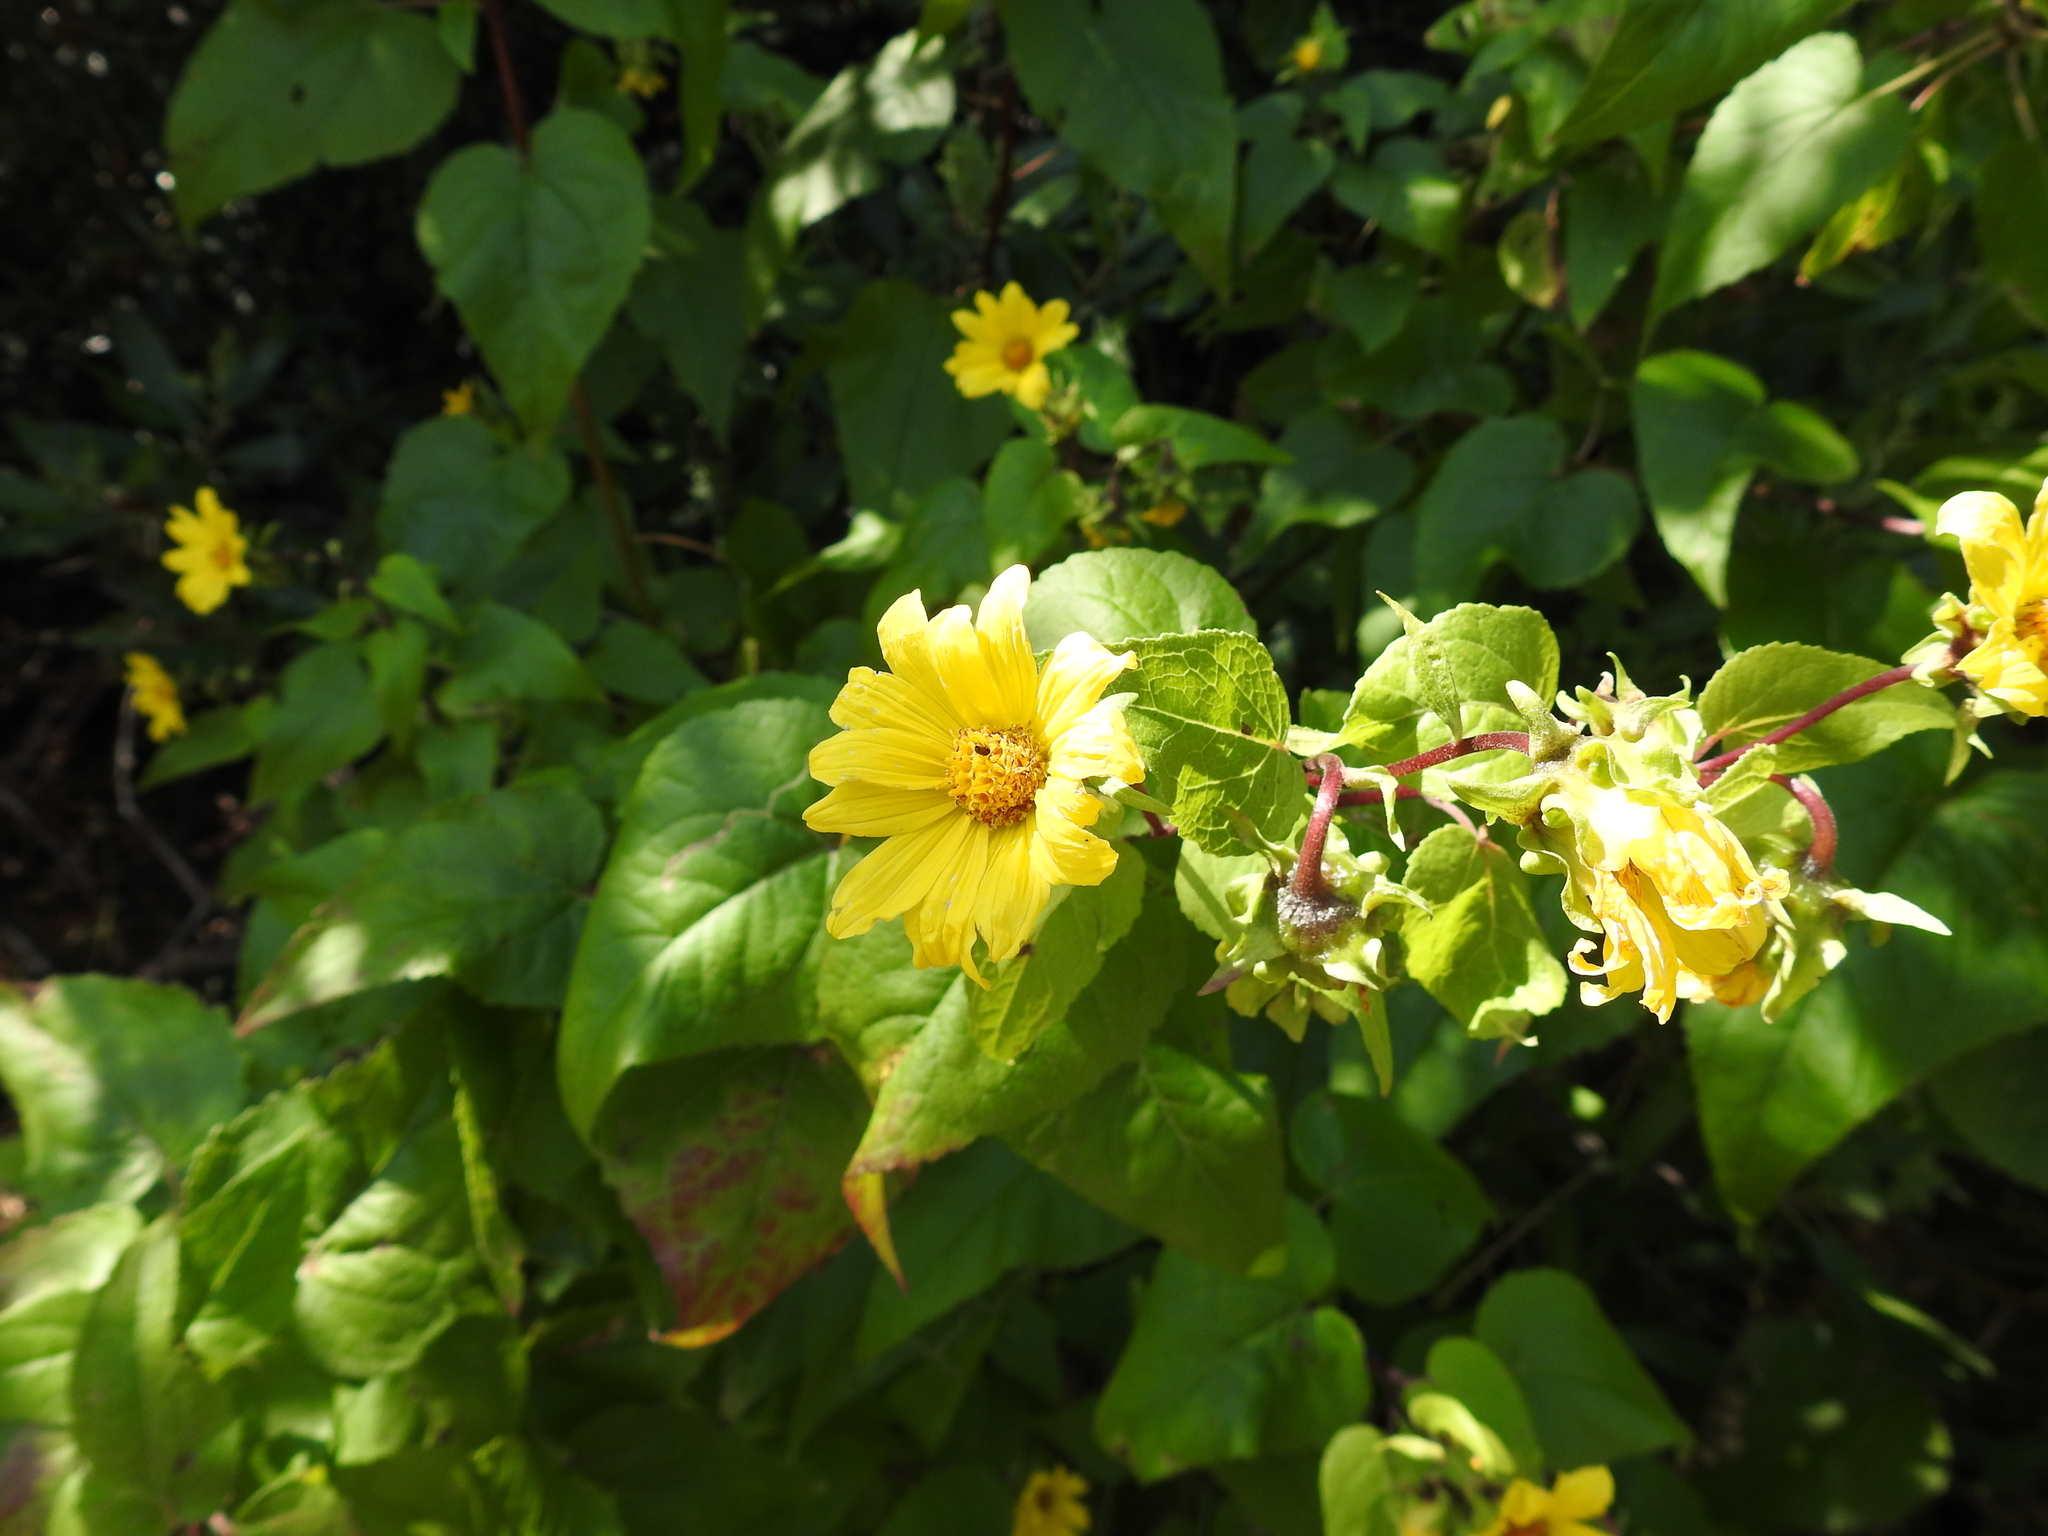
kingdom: Plantae
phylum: Tracheophyta
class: Magnoliopsida
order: Asterales
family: Asteraceae
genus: Venegasia
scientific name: Venegasia carpesioides
